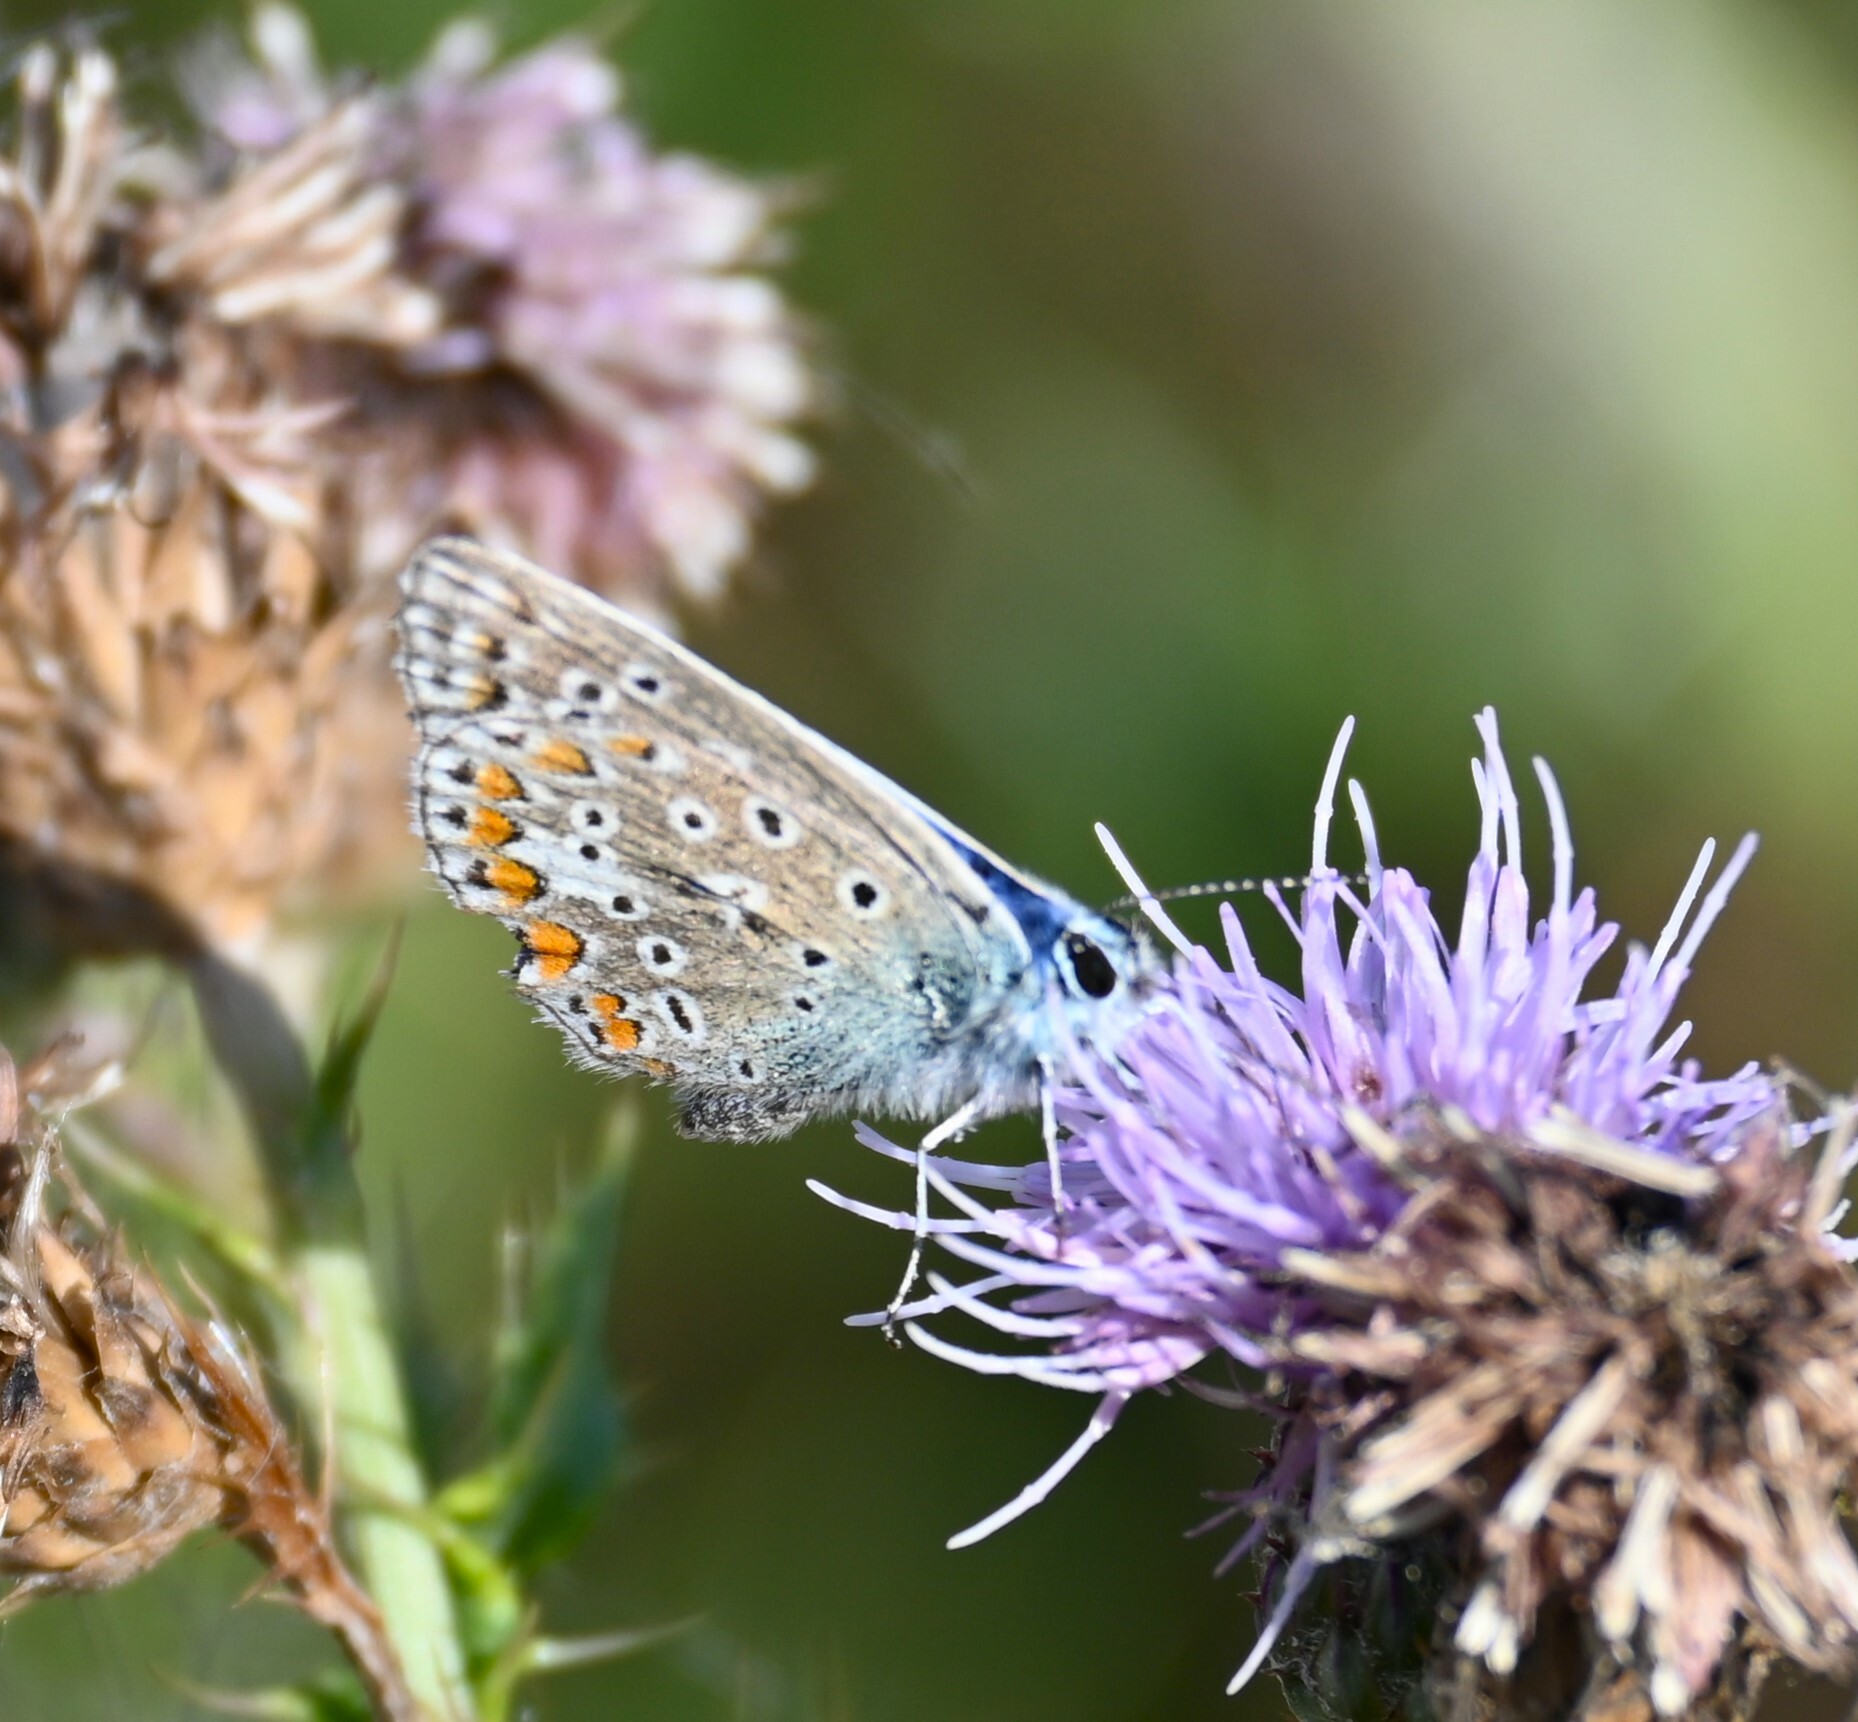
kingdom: Animalia
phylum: Arthropoda
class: Insecta
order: Lepidoptera
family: Lycaenidae
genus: Polyommatus
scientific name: Polyommatus icarus
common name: Common blue
